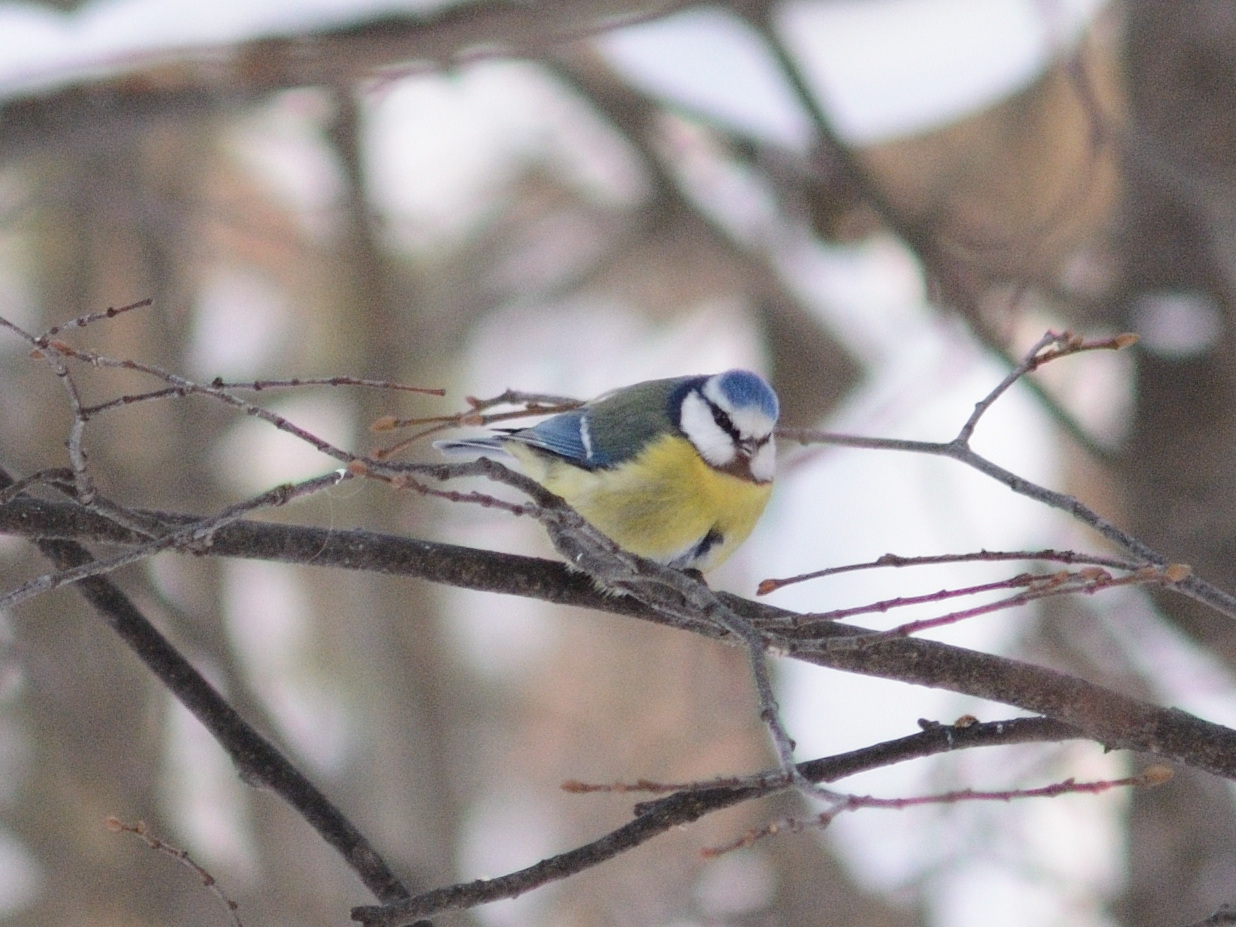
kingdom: Animalia
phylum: Chordata
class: Aves
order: Passeriformes
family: Paridae
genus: Cyanistes
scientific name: Cyanistes caeruleus
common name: Eurasian blue tit
